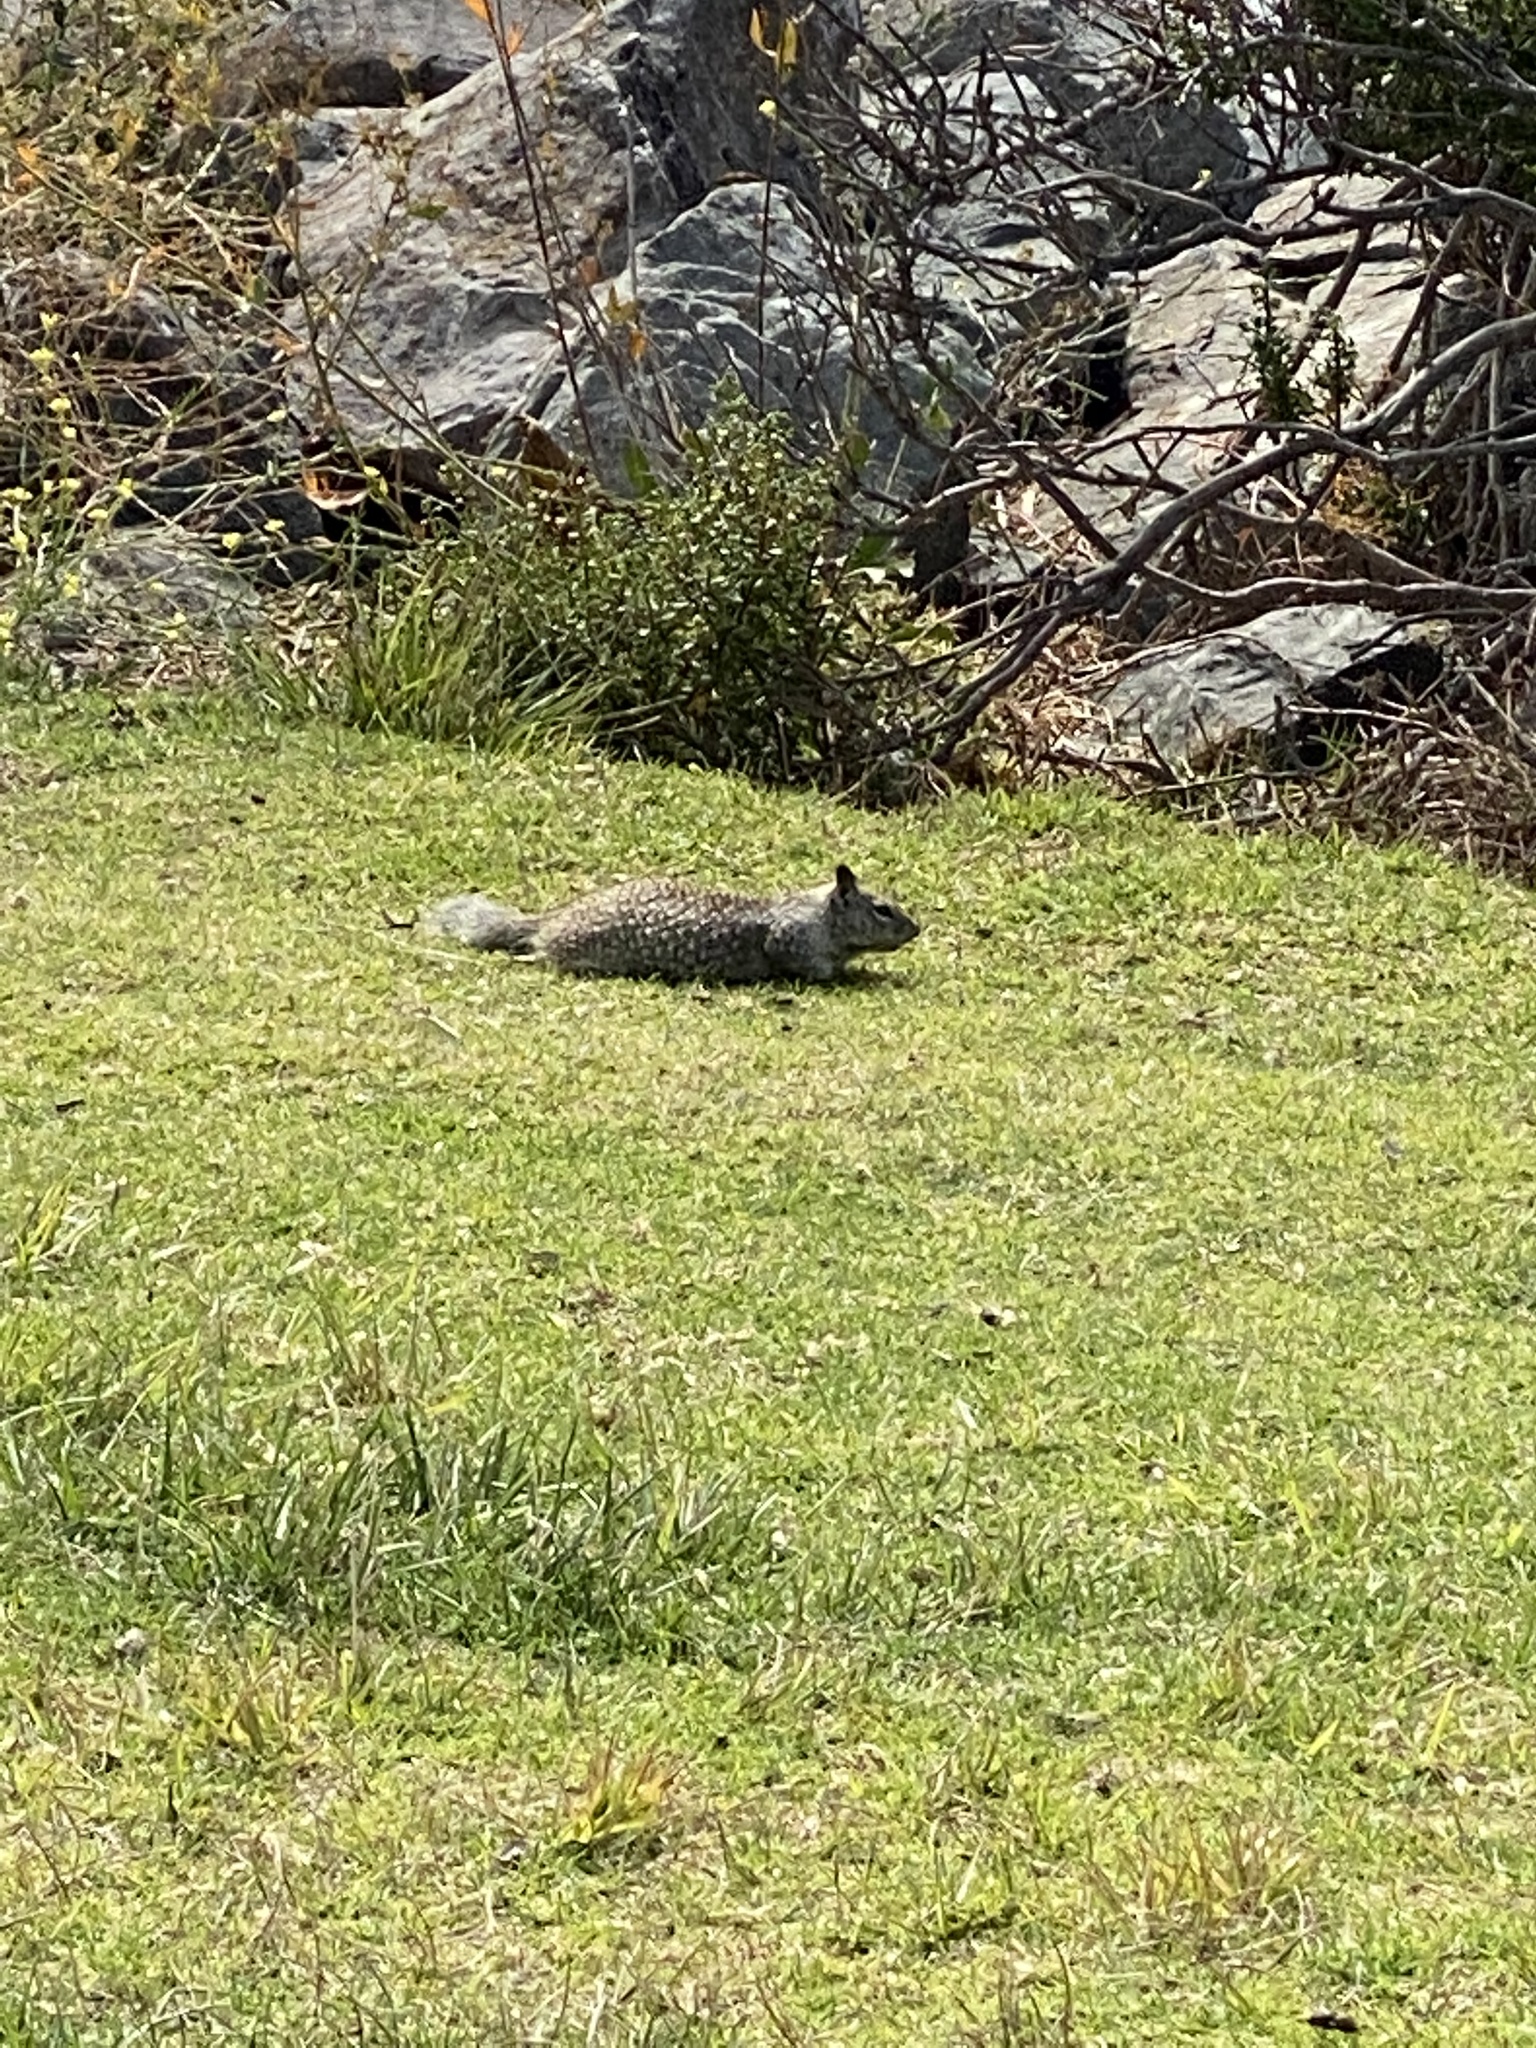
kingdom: Animalia
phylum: Chordata
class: Mammalia
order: Rodentia
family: Sciuridae
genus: Otospermophilus
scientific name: Otospermophilus beecheyi
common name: California ground squirrel
